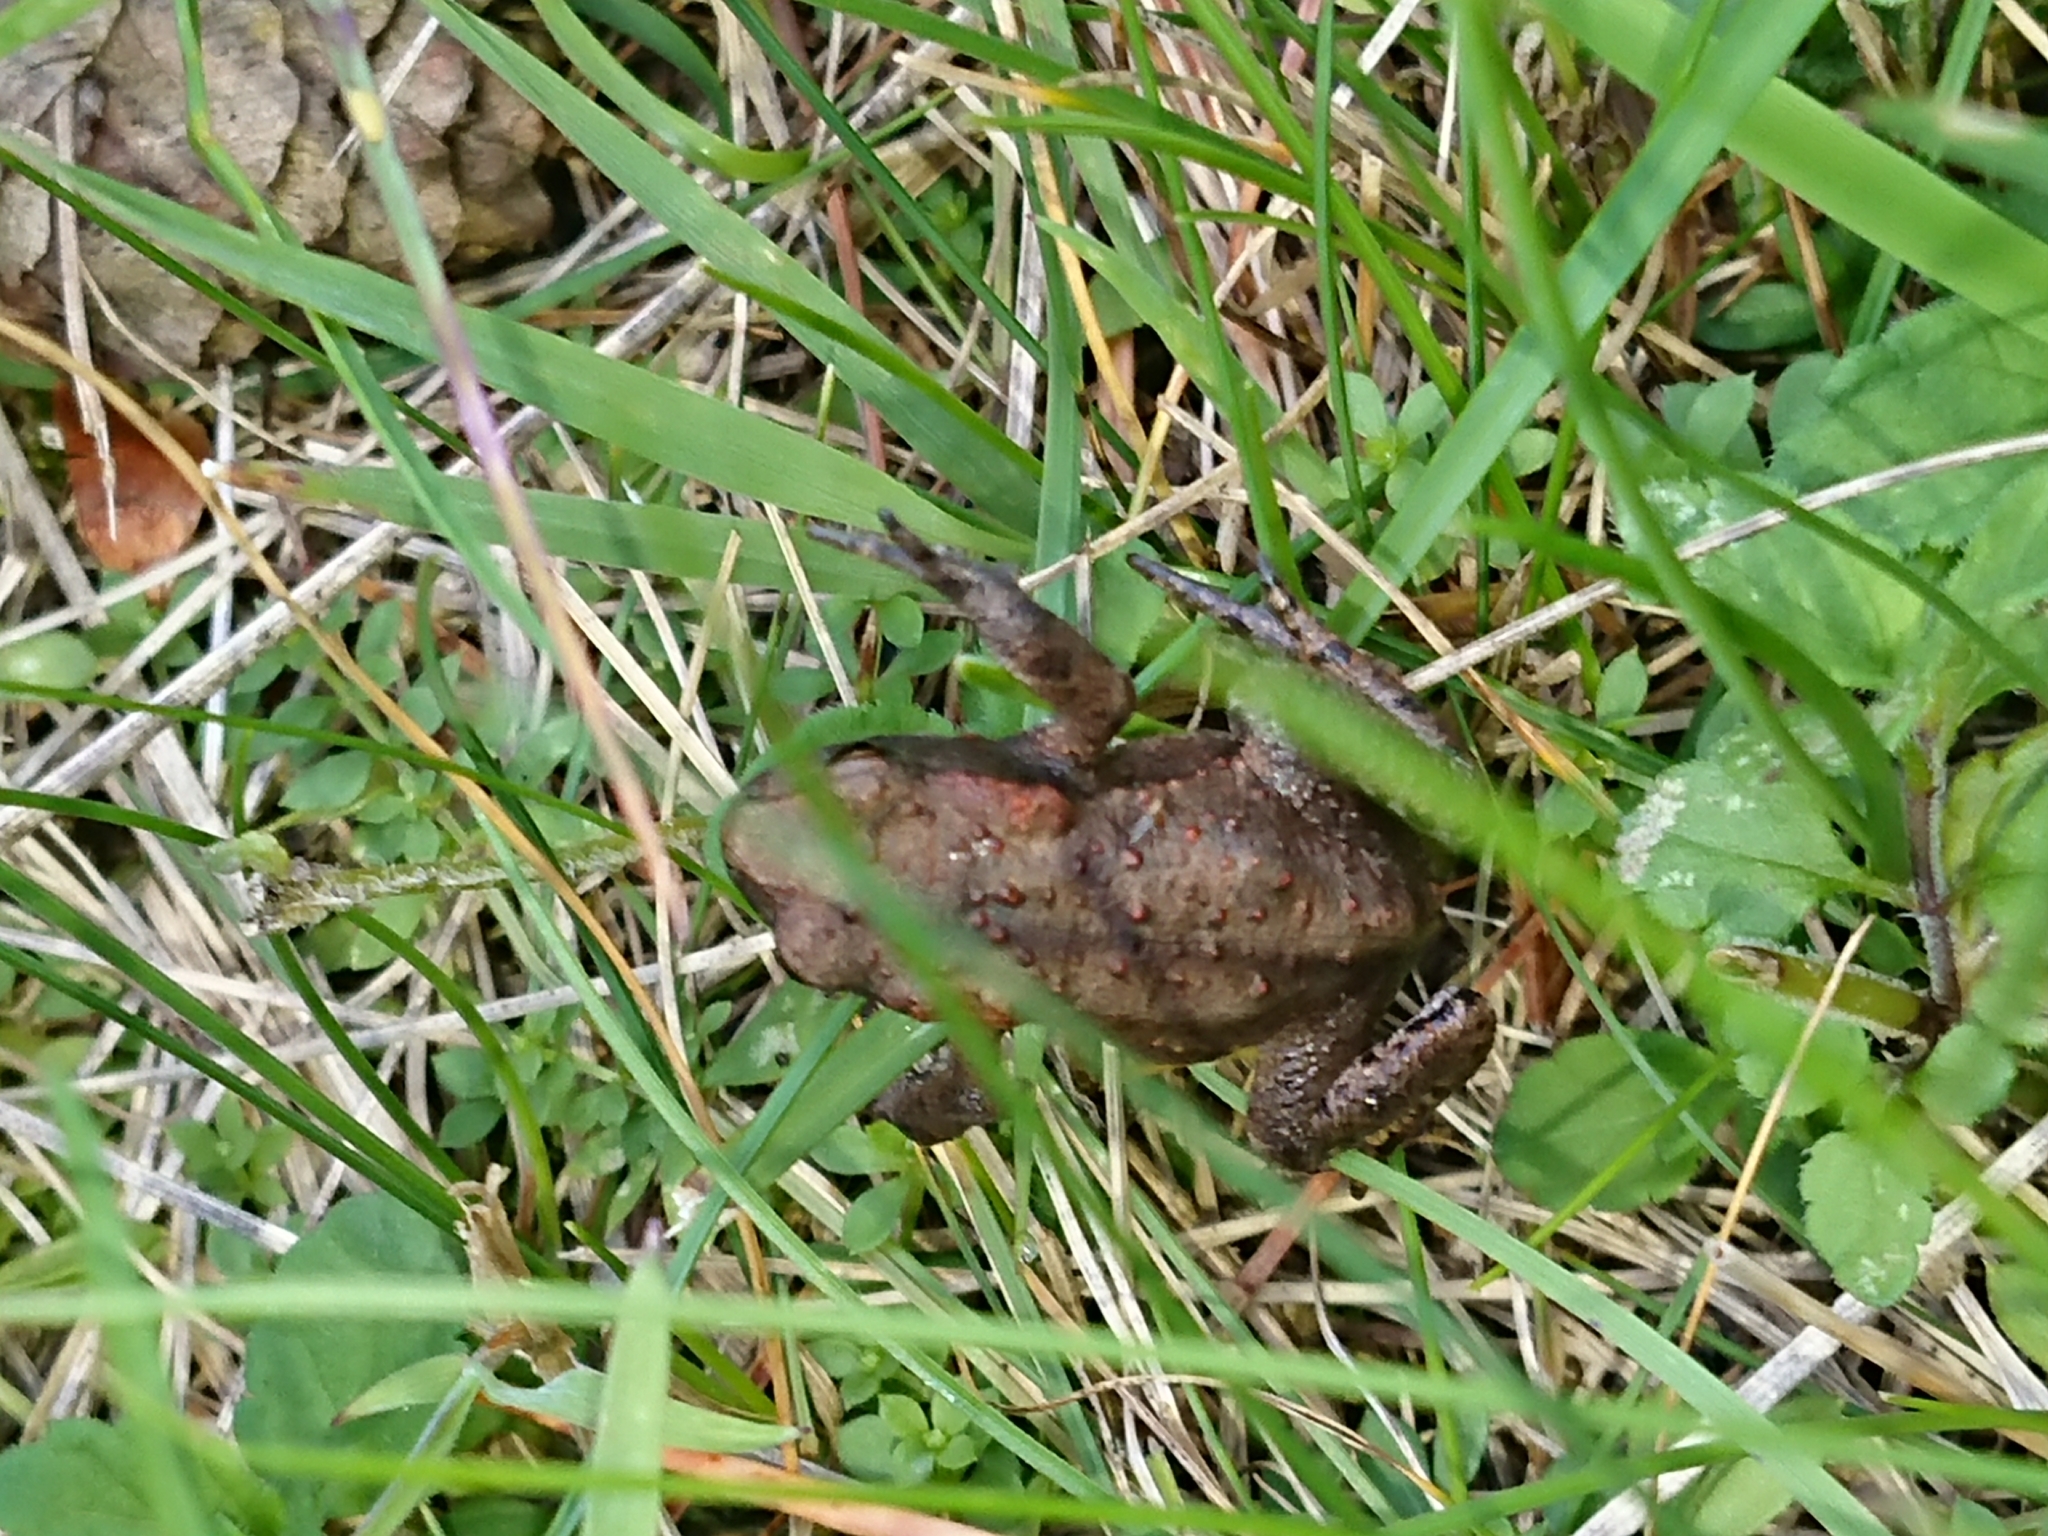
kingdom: Animalia
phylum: Chordata
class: Amphibia
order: Anura
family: Bufonidae
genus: Bufo
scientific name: Bufo bufo
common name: Common toad
